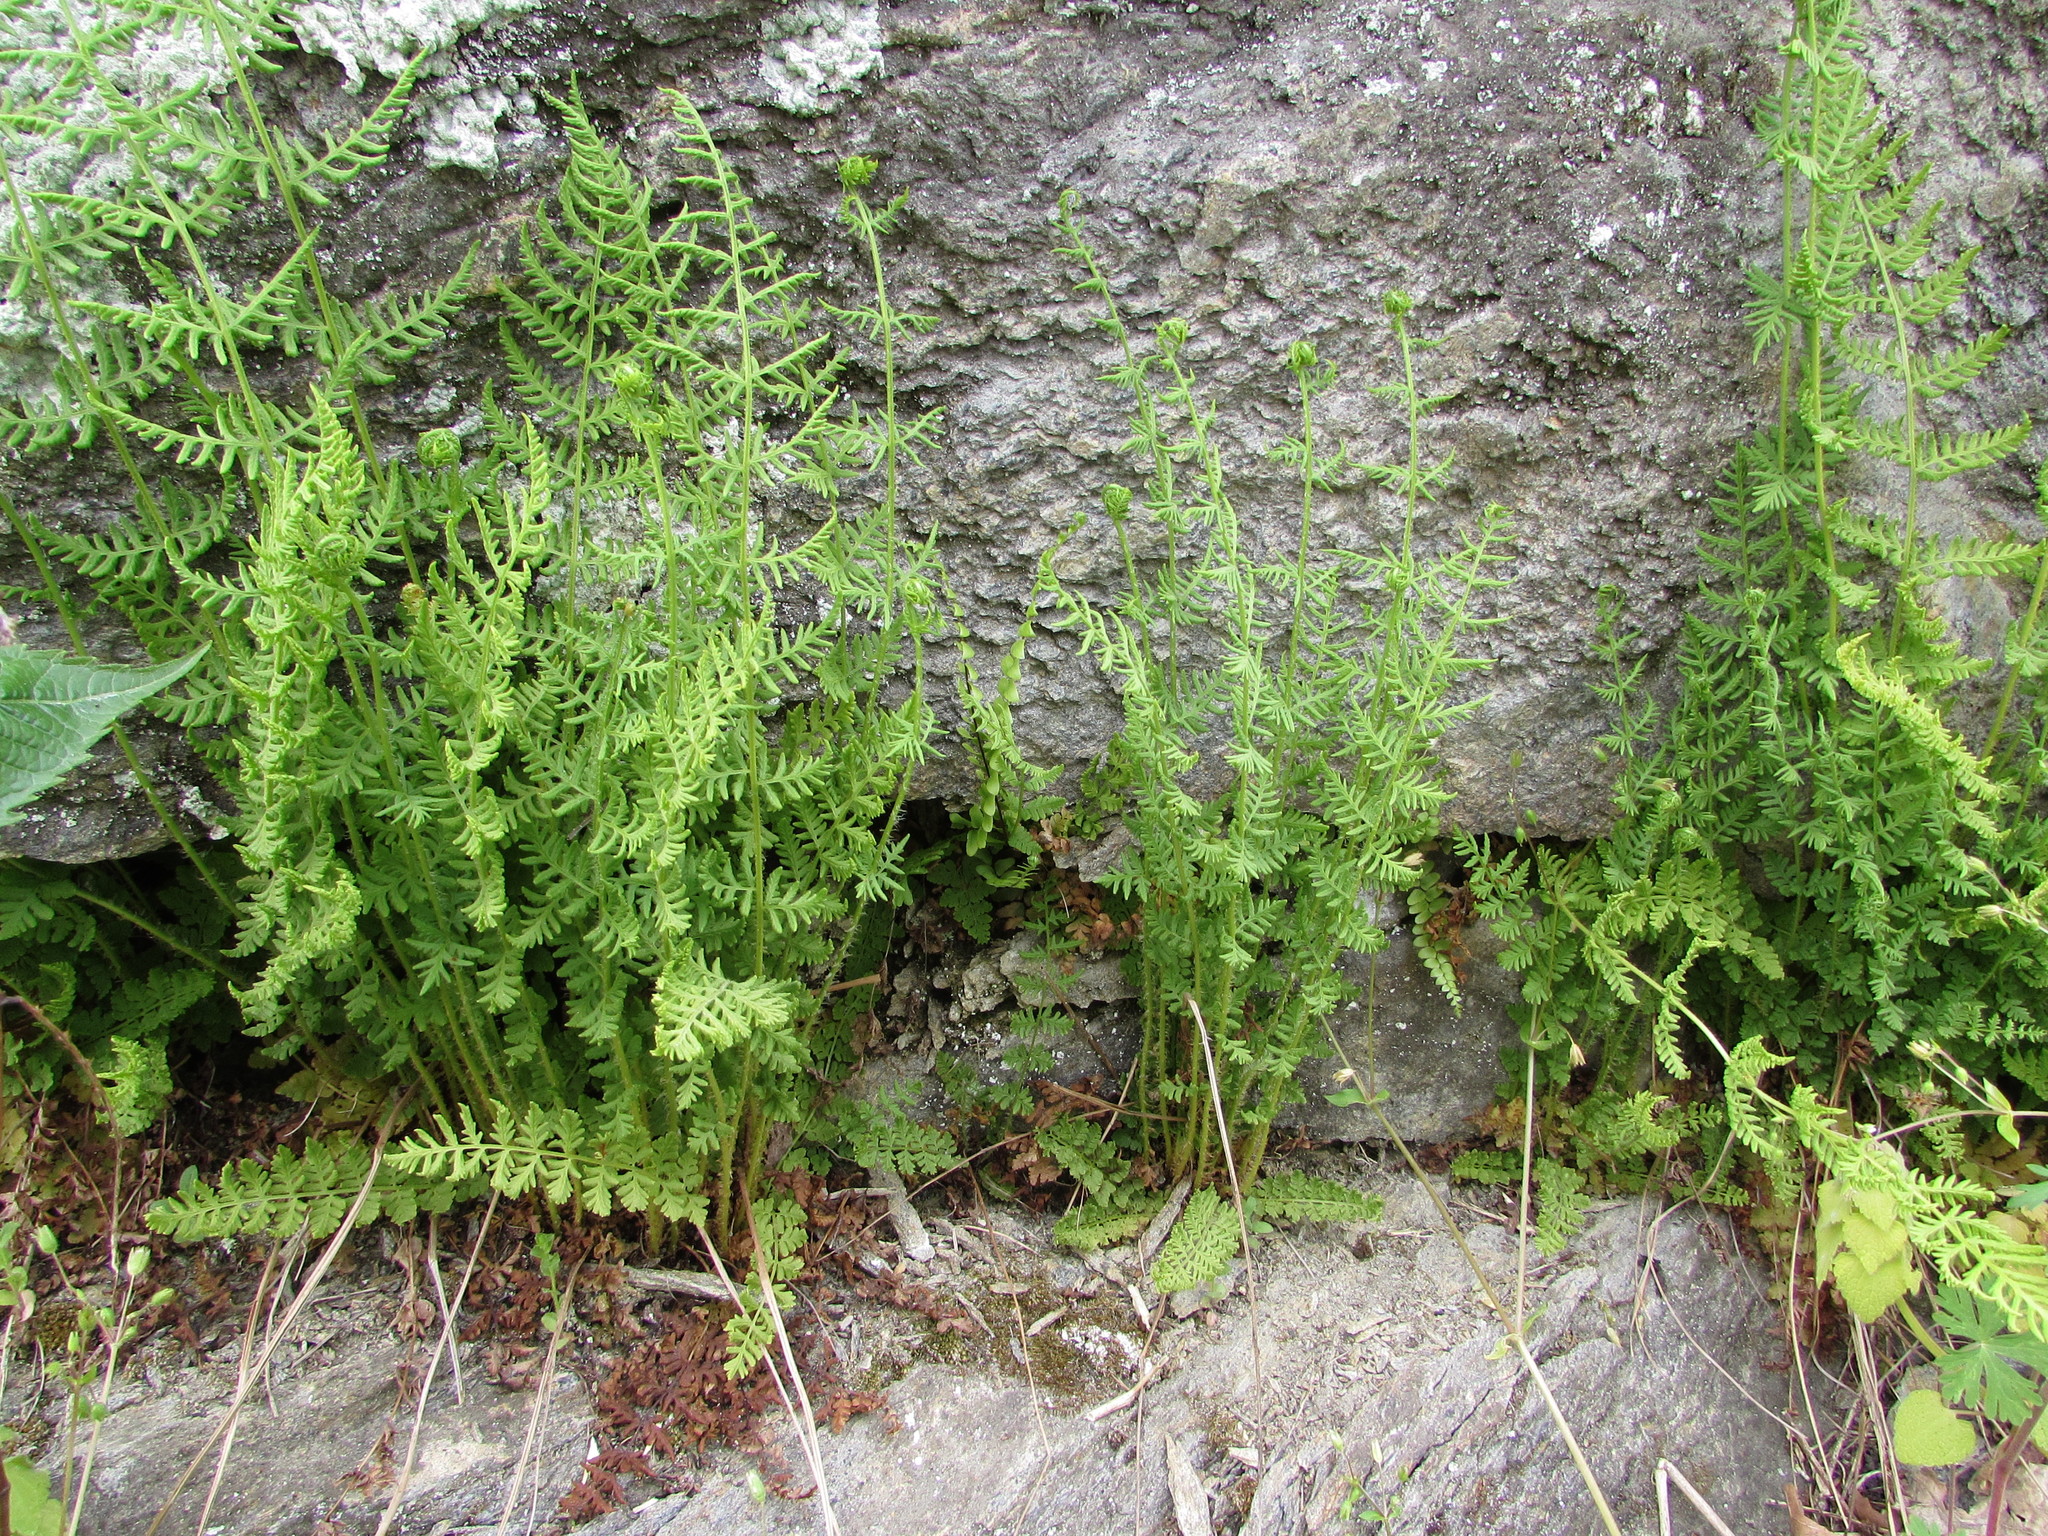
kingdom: Plantae
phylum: Tracheophyta
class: Polypodiopsida
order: Polypodiales
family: Woodsiaceae
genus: Physematium
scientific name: Physematium obtusum
